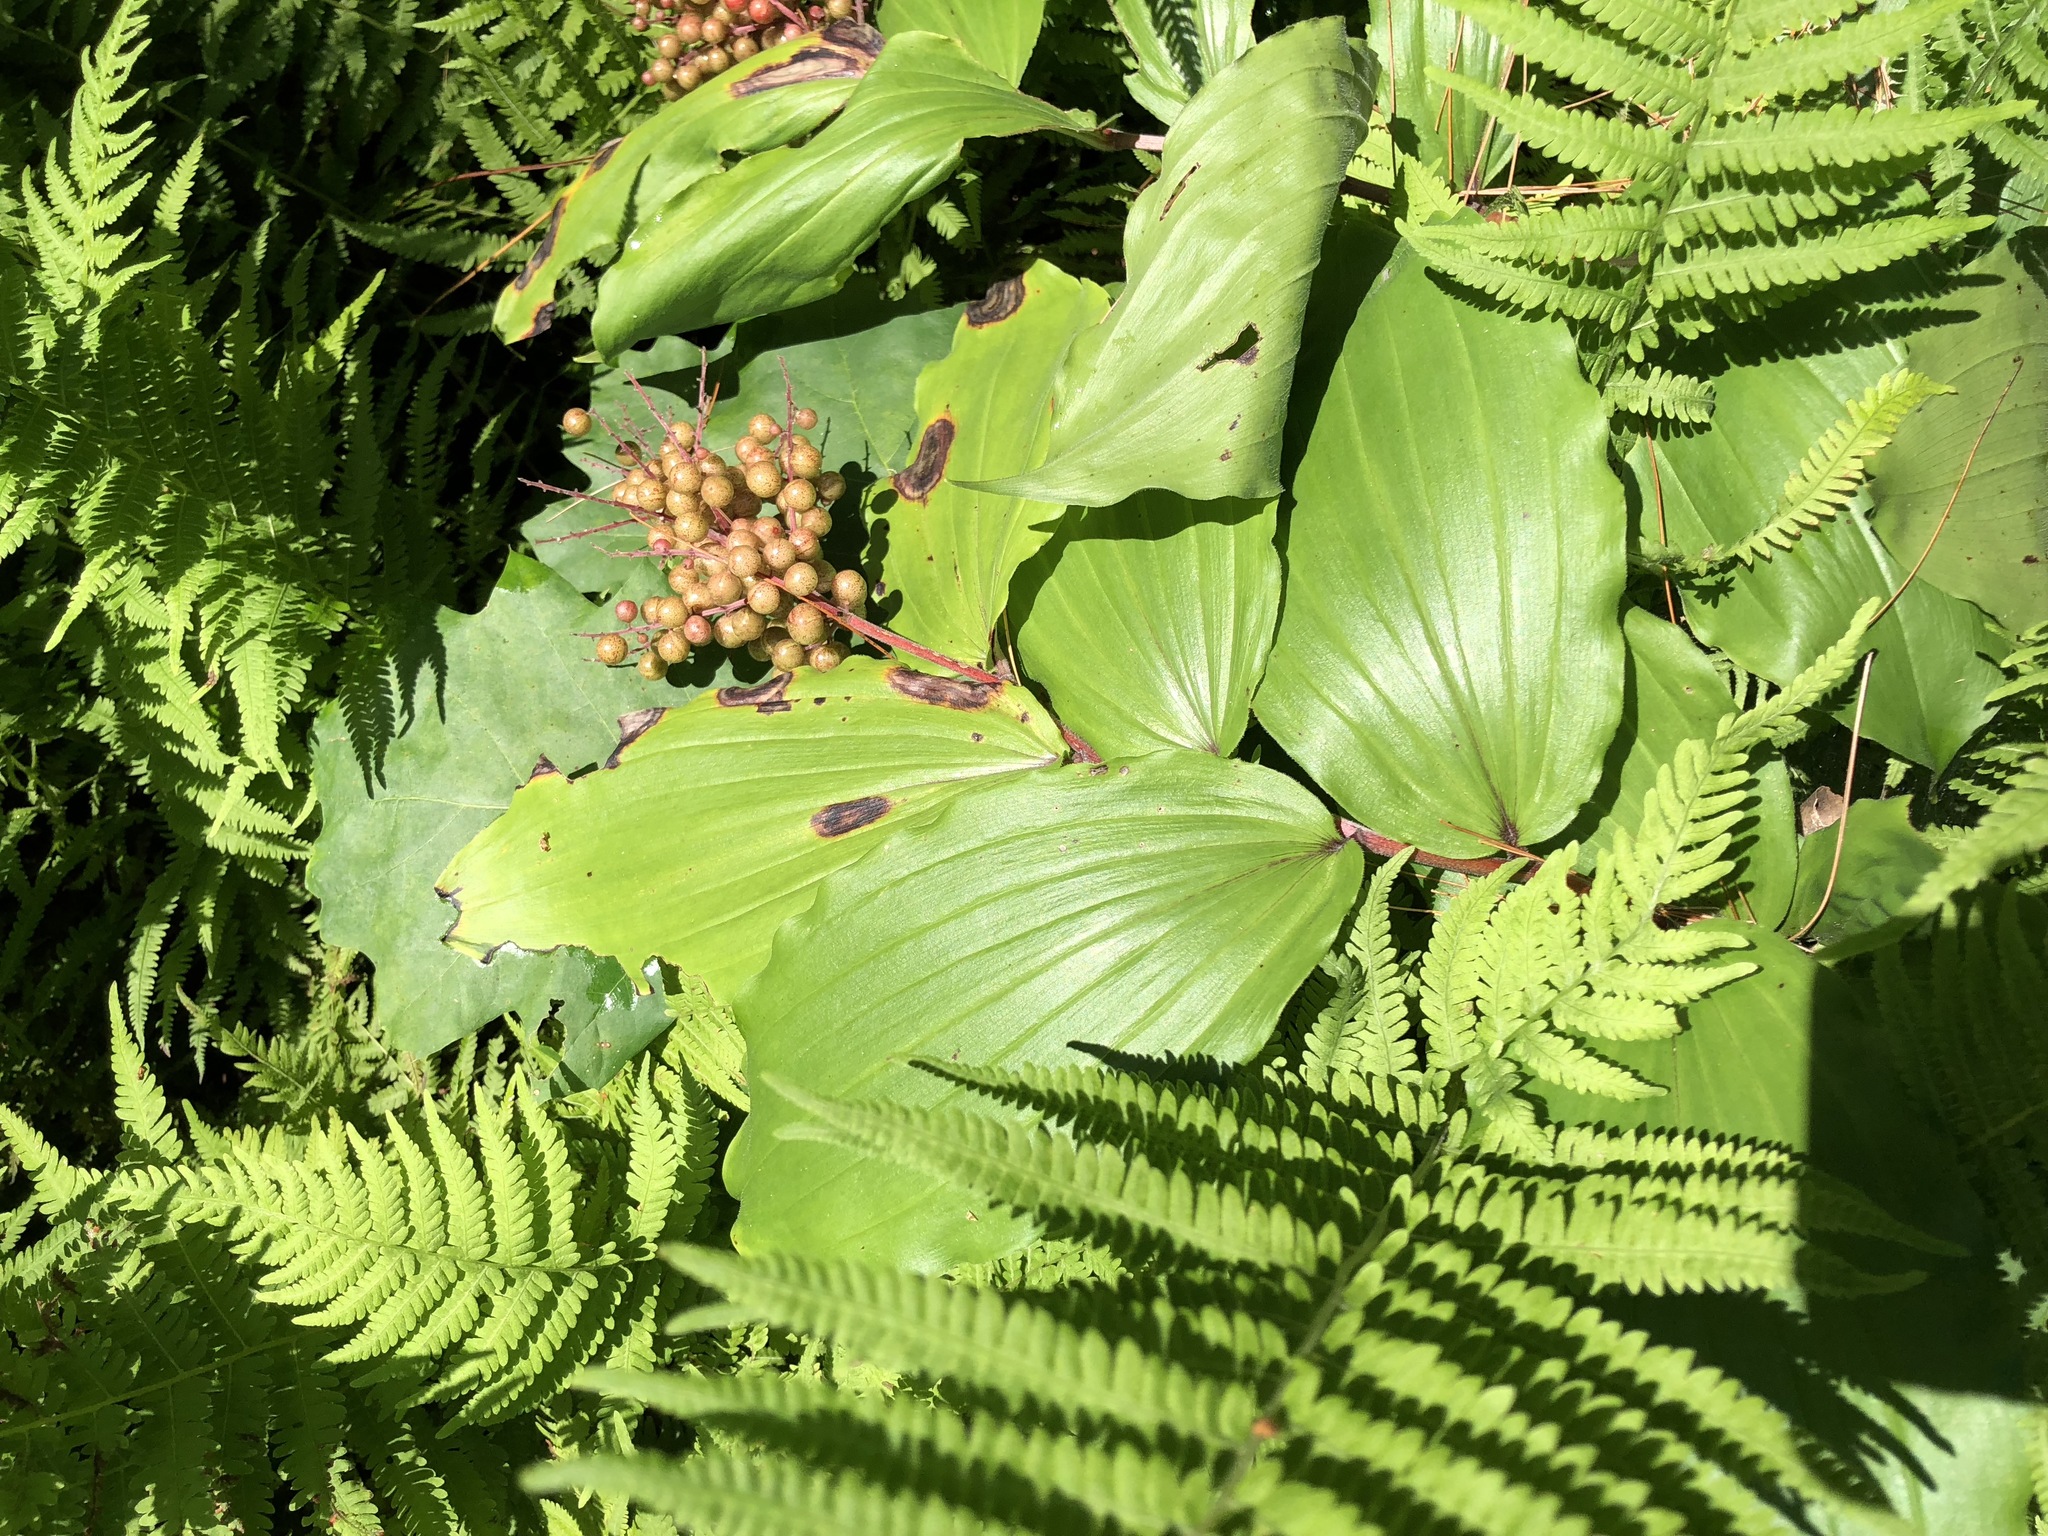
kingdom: Plantae
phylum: Tracheophyta
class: Liliopsida
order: Asparagales
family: Asparagaceae
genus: Maianthemum
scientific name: Maianthemum racemosum
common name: False spikenard
